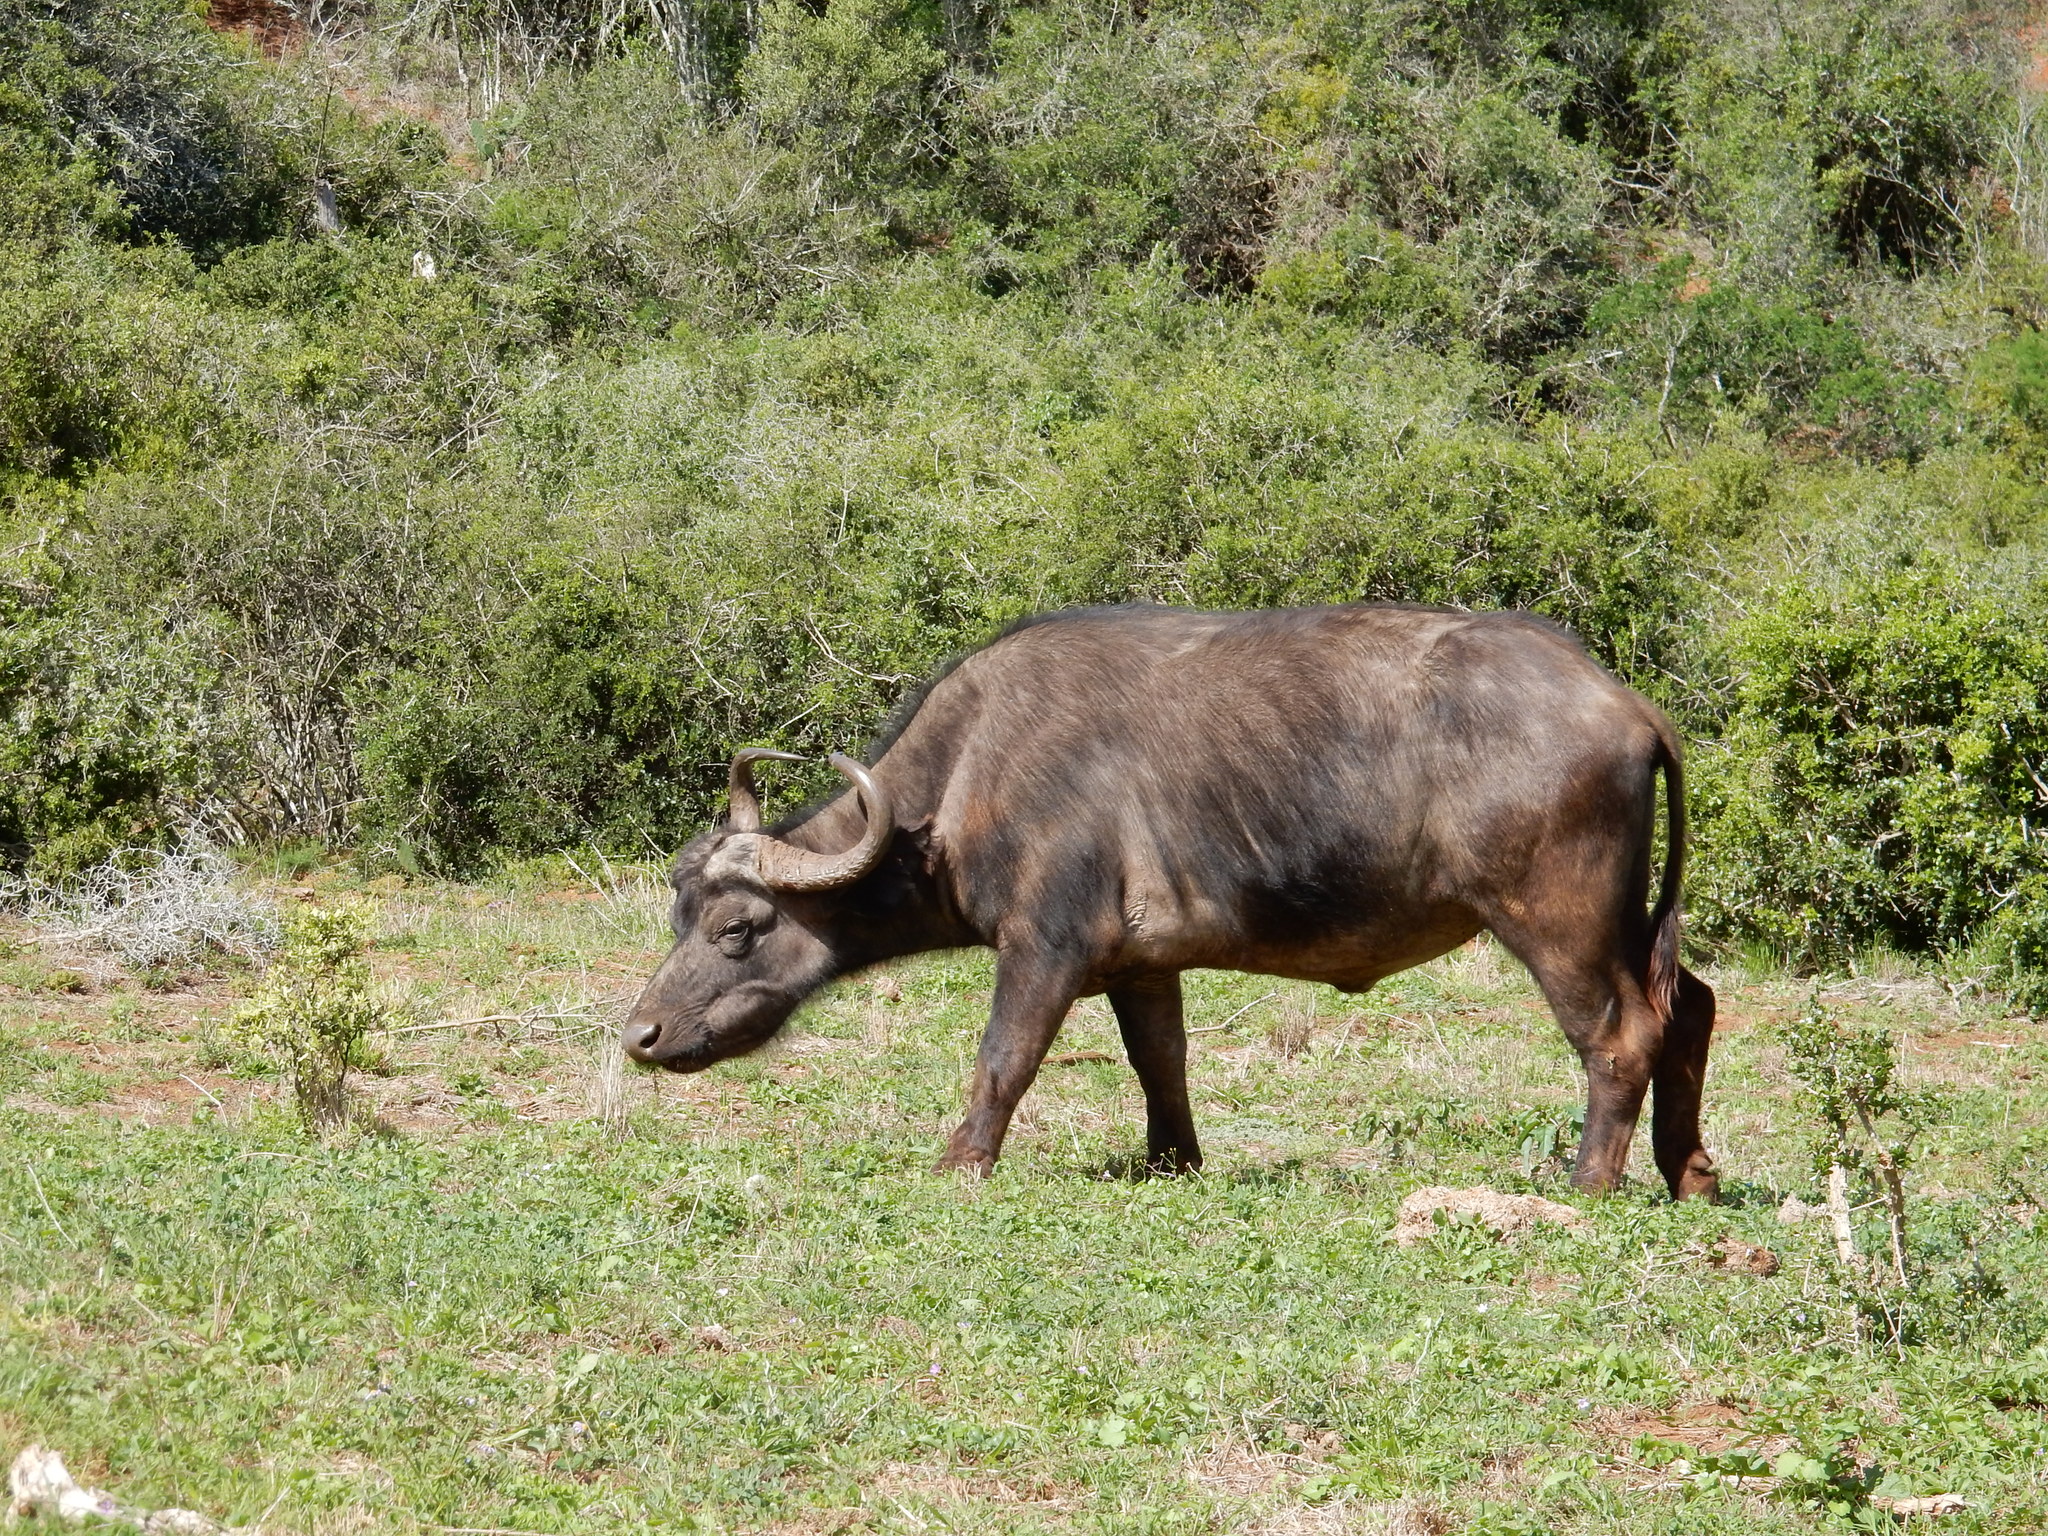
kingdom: Animalia
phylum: Chordata
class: Mammalia
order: Artiodactyla
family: Bovidae
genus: Syncerus
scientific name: Syncerus caffer
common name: African buffalo
